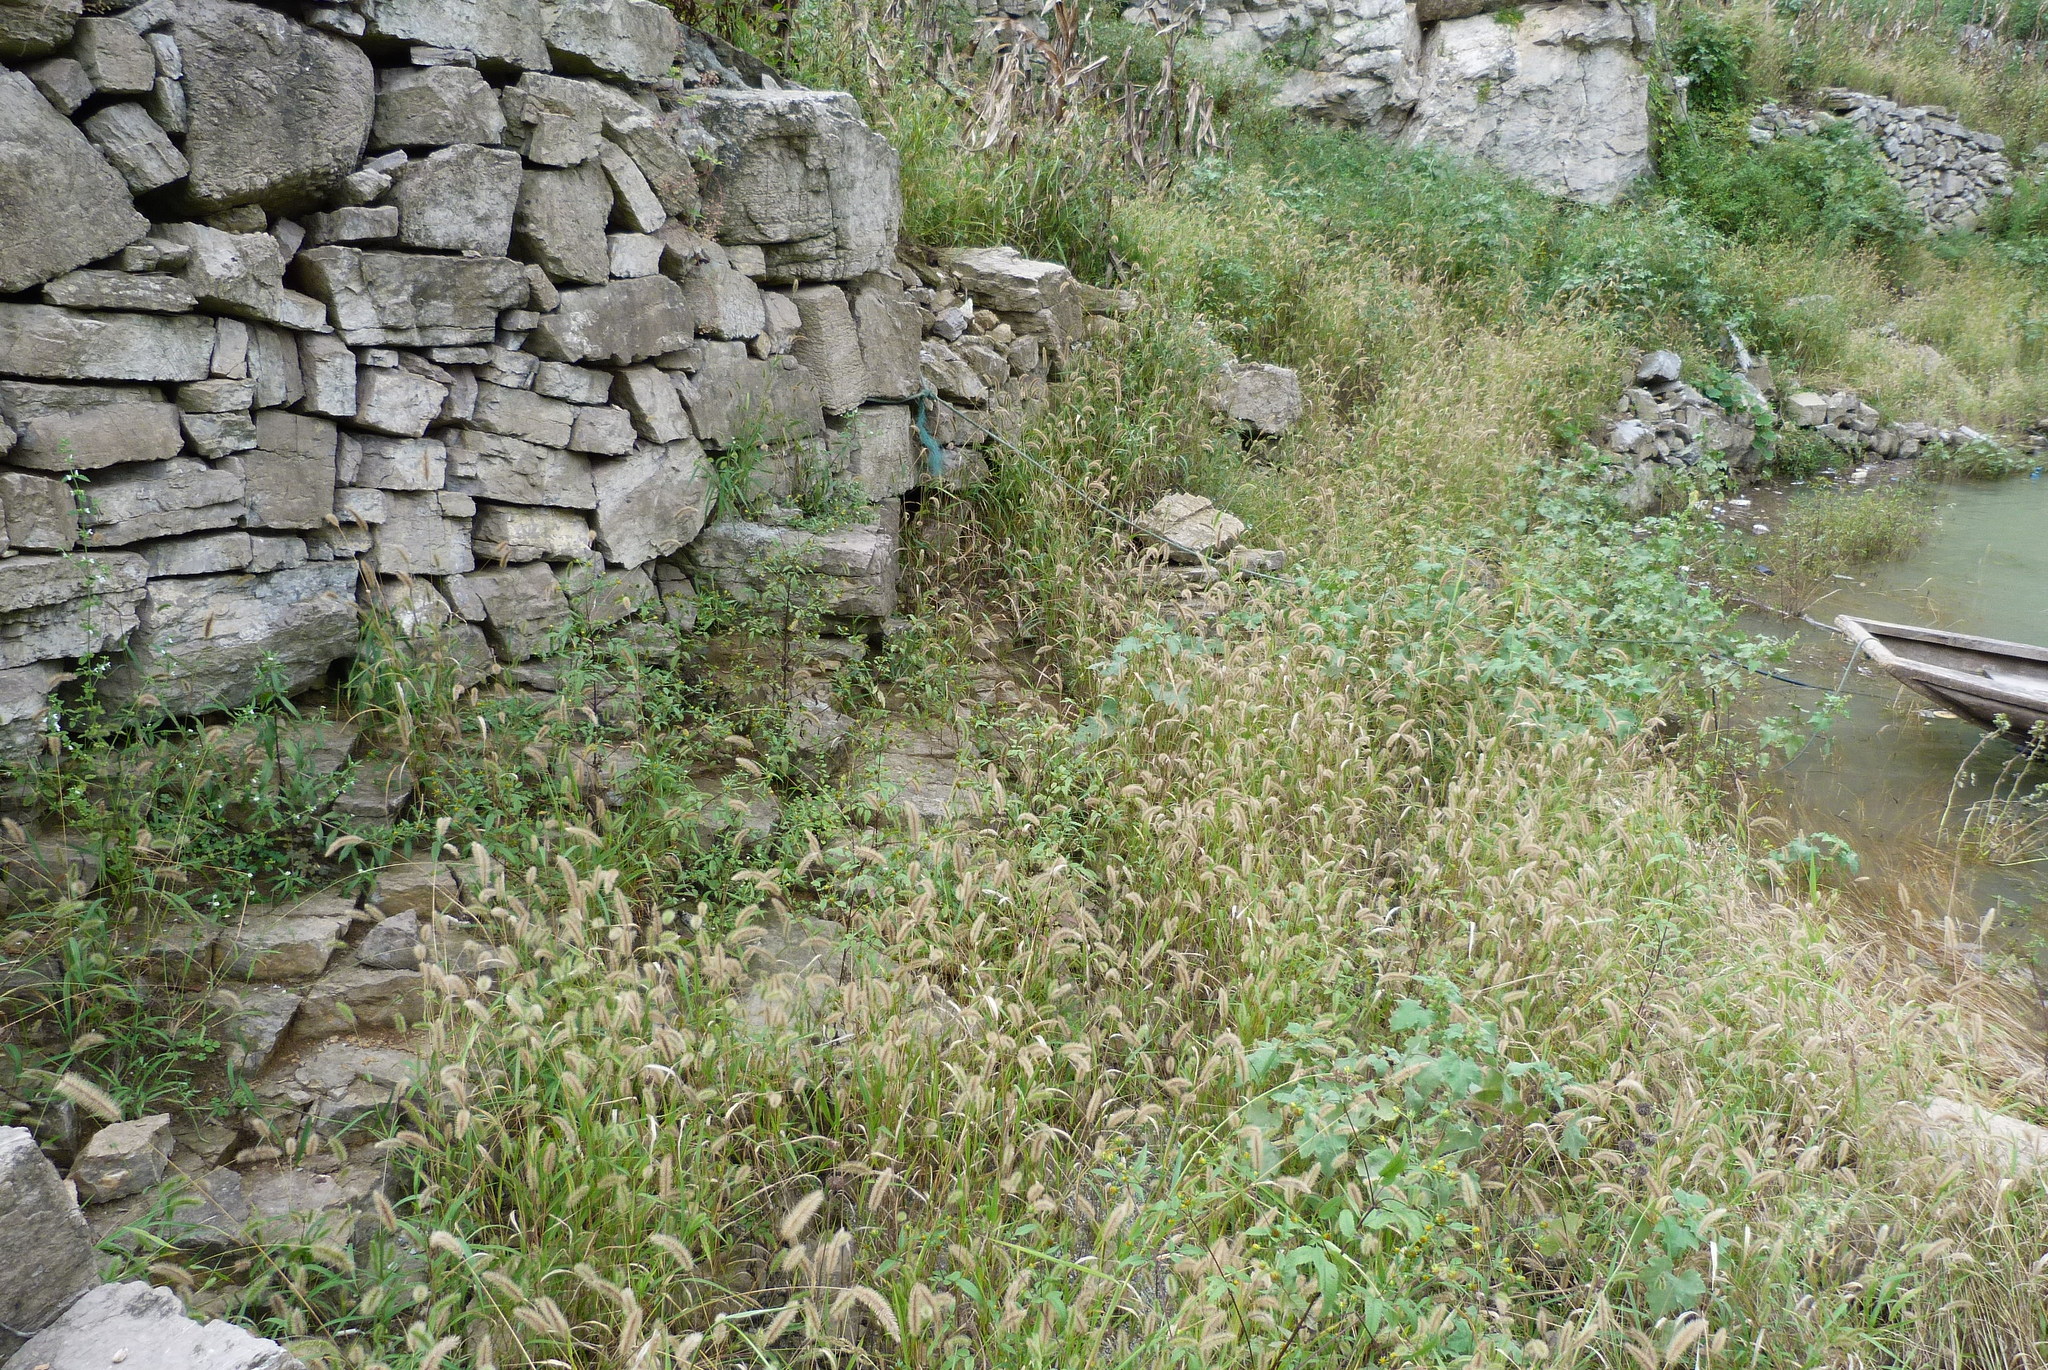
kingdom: Plantae
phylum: Tracheophyta
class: Liliopsida
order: Poales
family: Poaceae
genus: Setaria
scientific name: Setaria viridis
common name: Green bristlegrass
